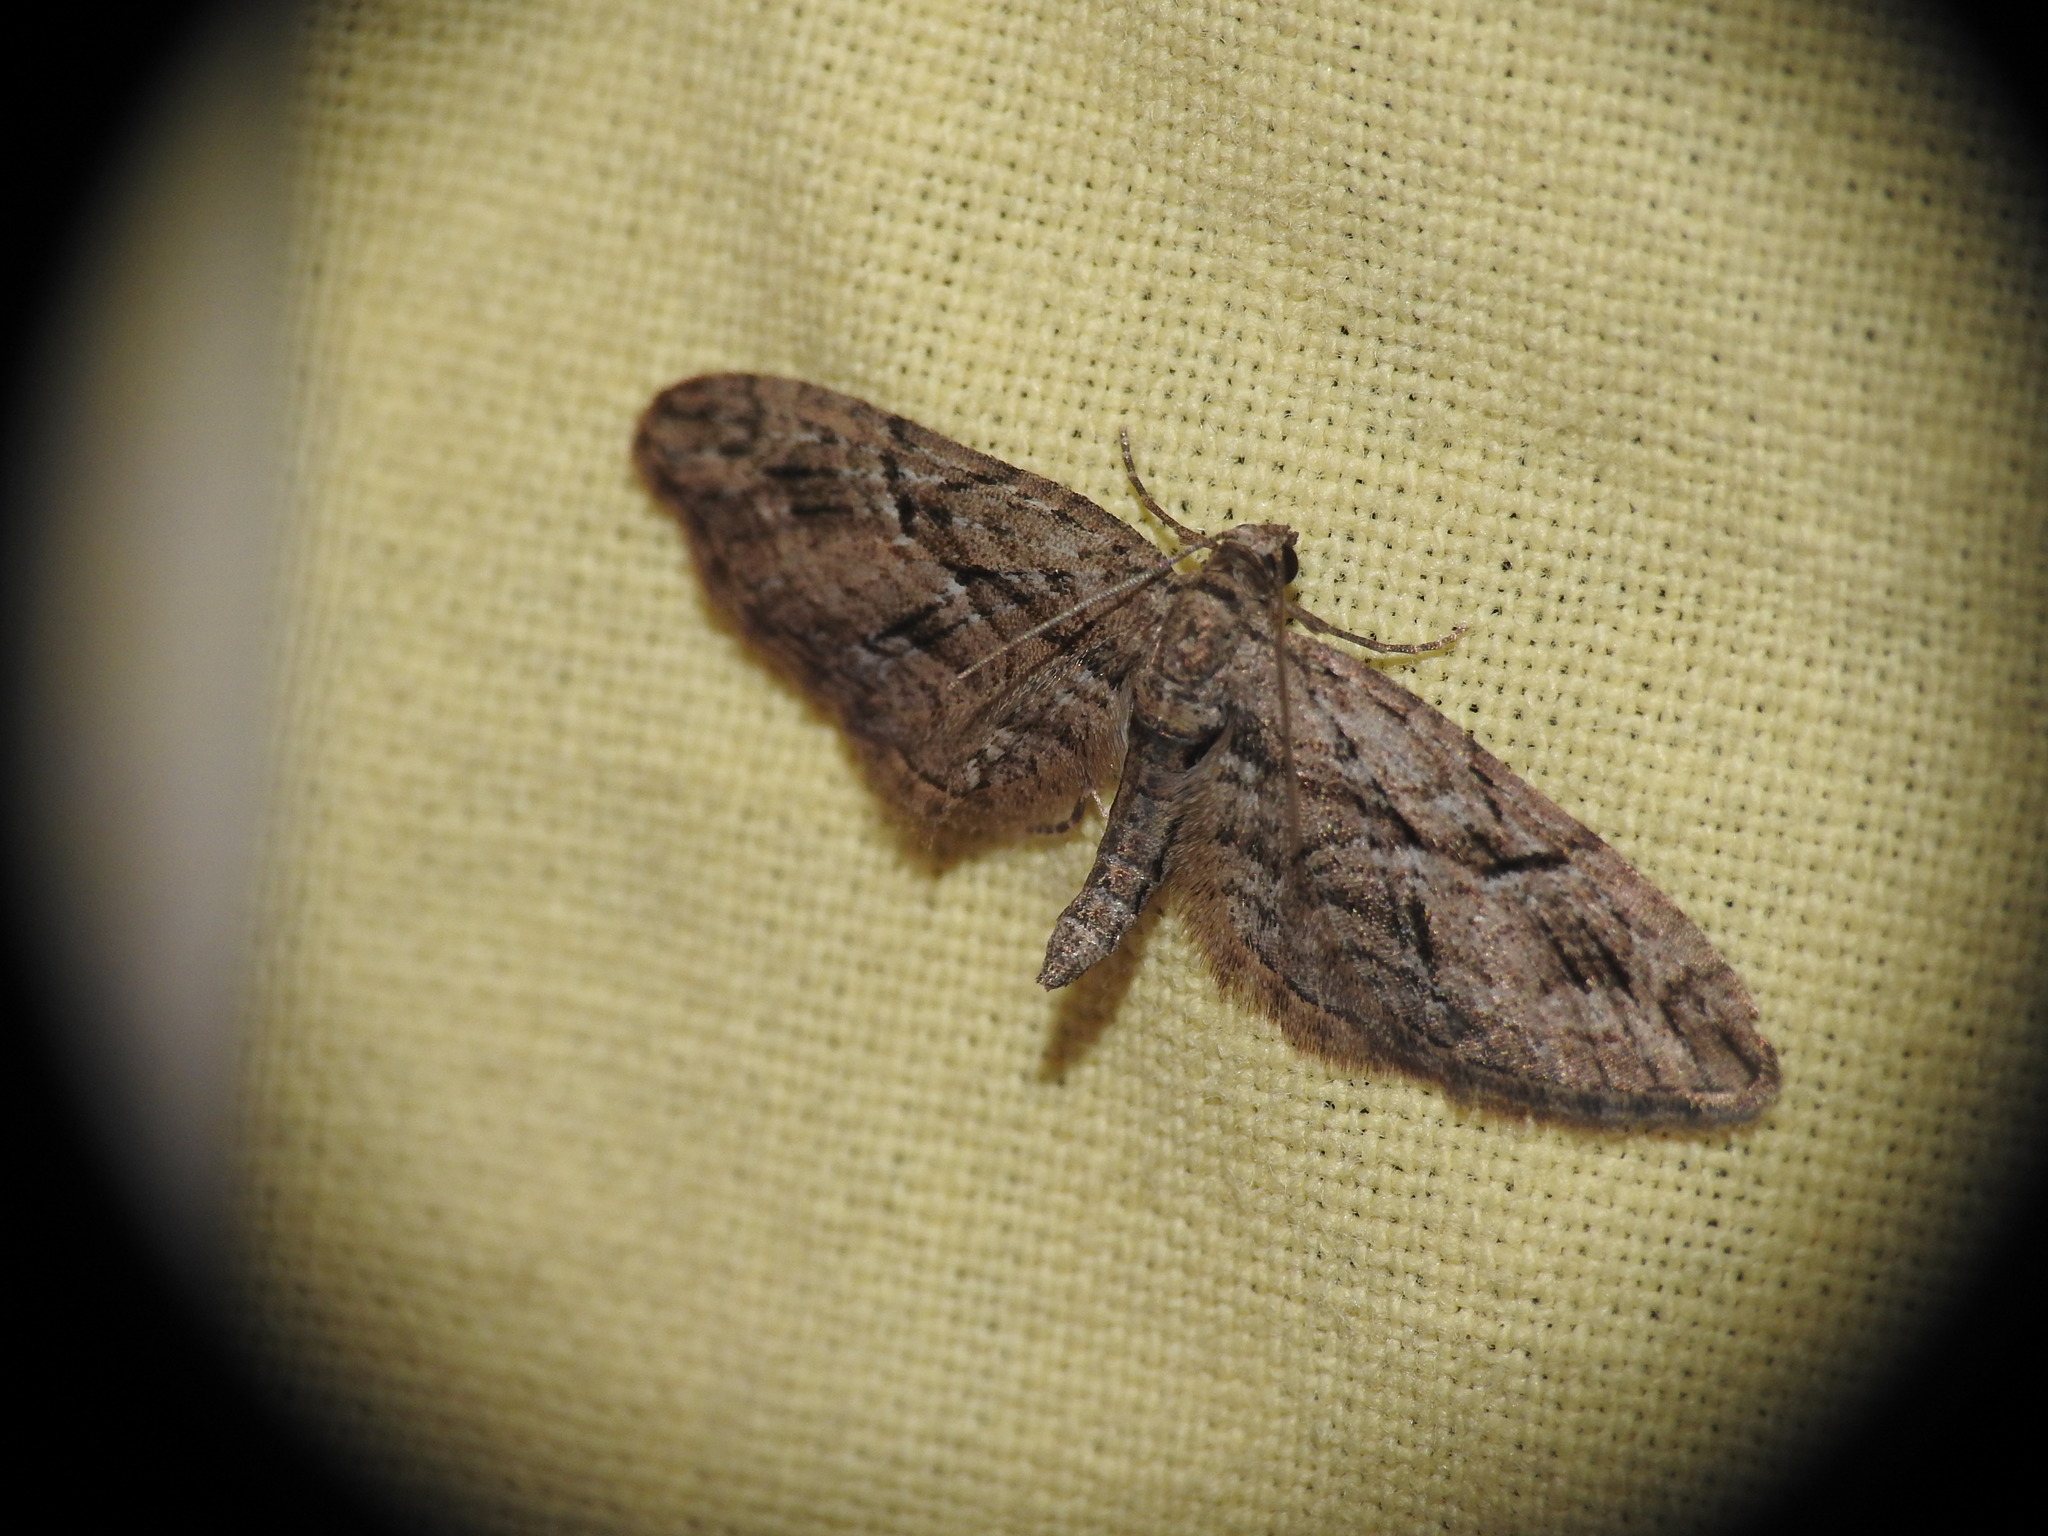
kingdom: Animalia
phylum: Arthropoda
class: Insecta
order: Lepidoptera
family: Geometridae
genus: Eupithecia
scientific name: Eupithecia oxycedrata
